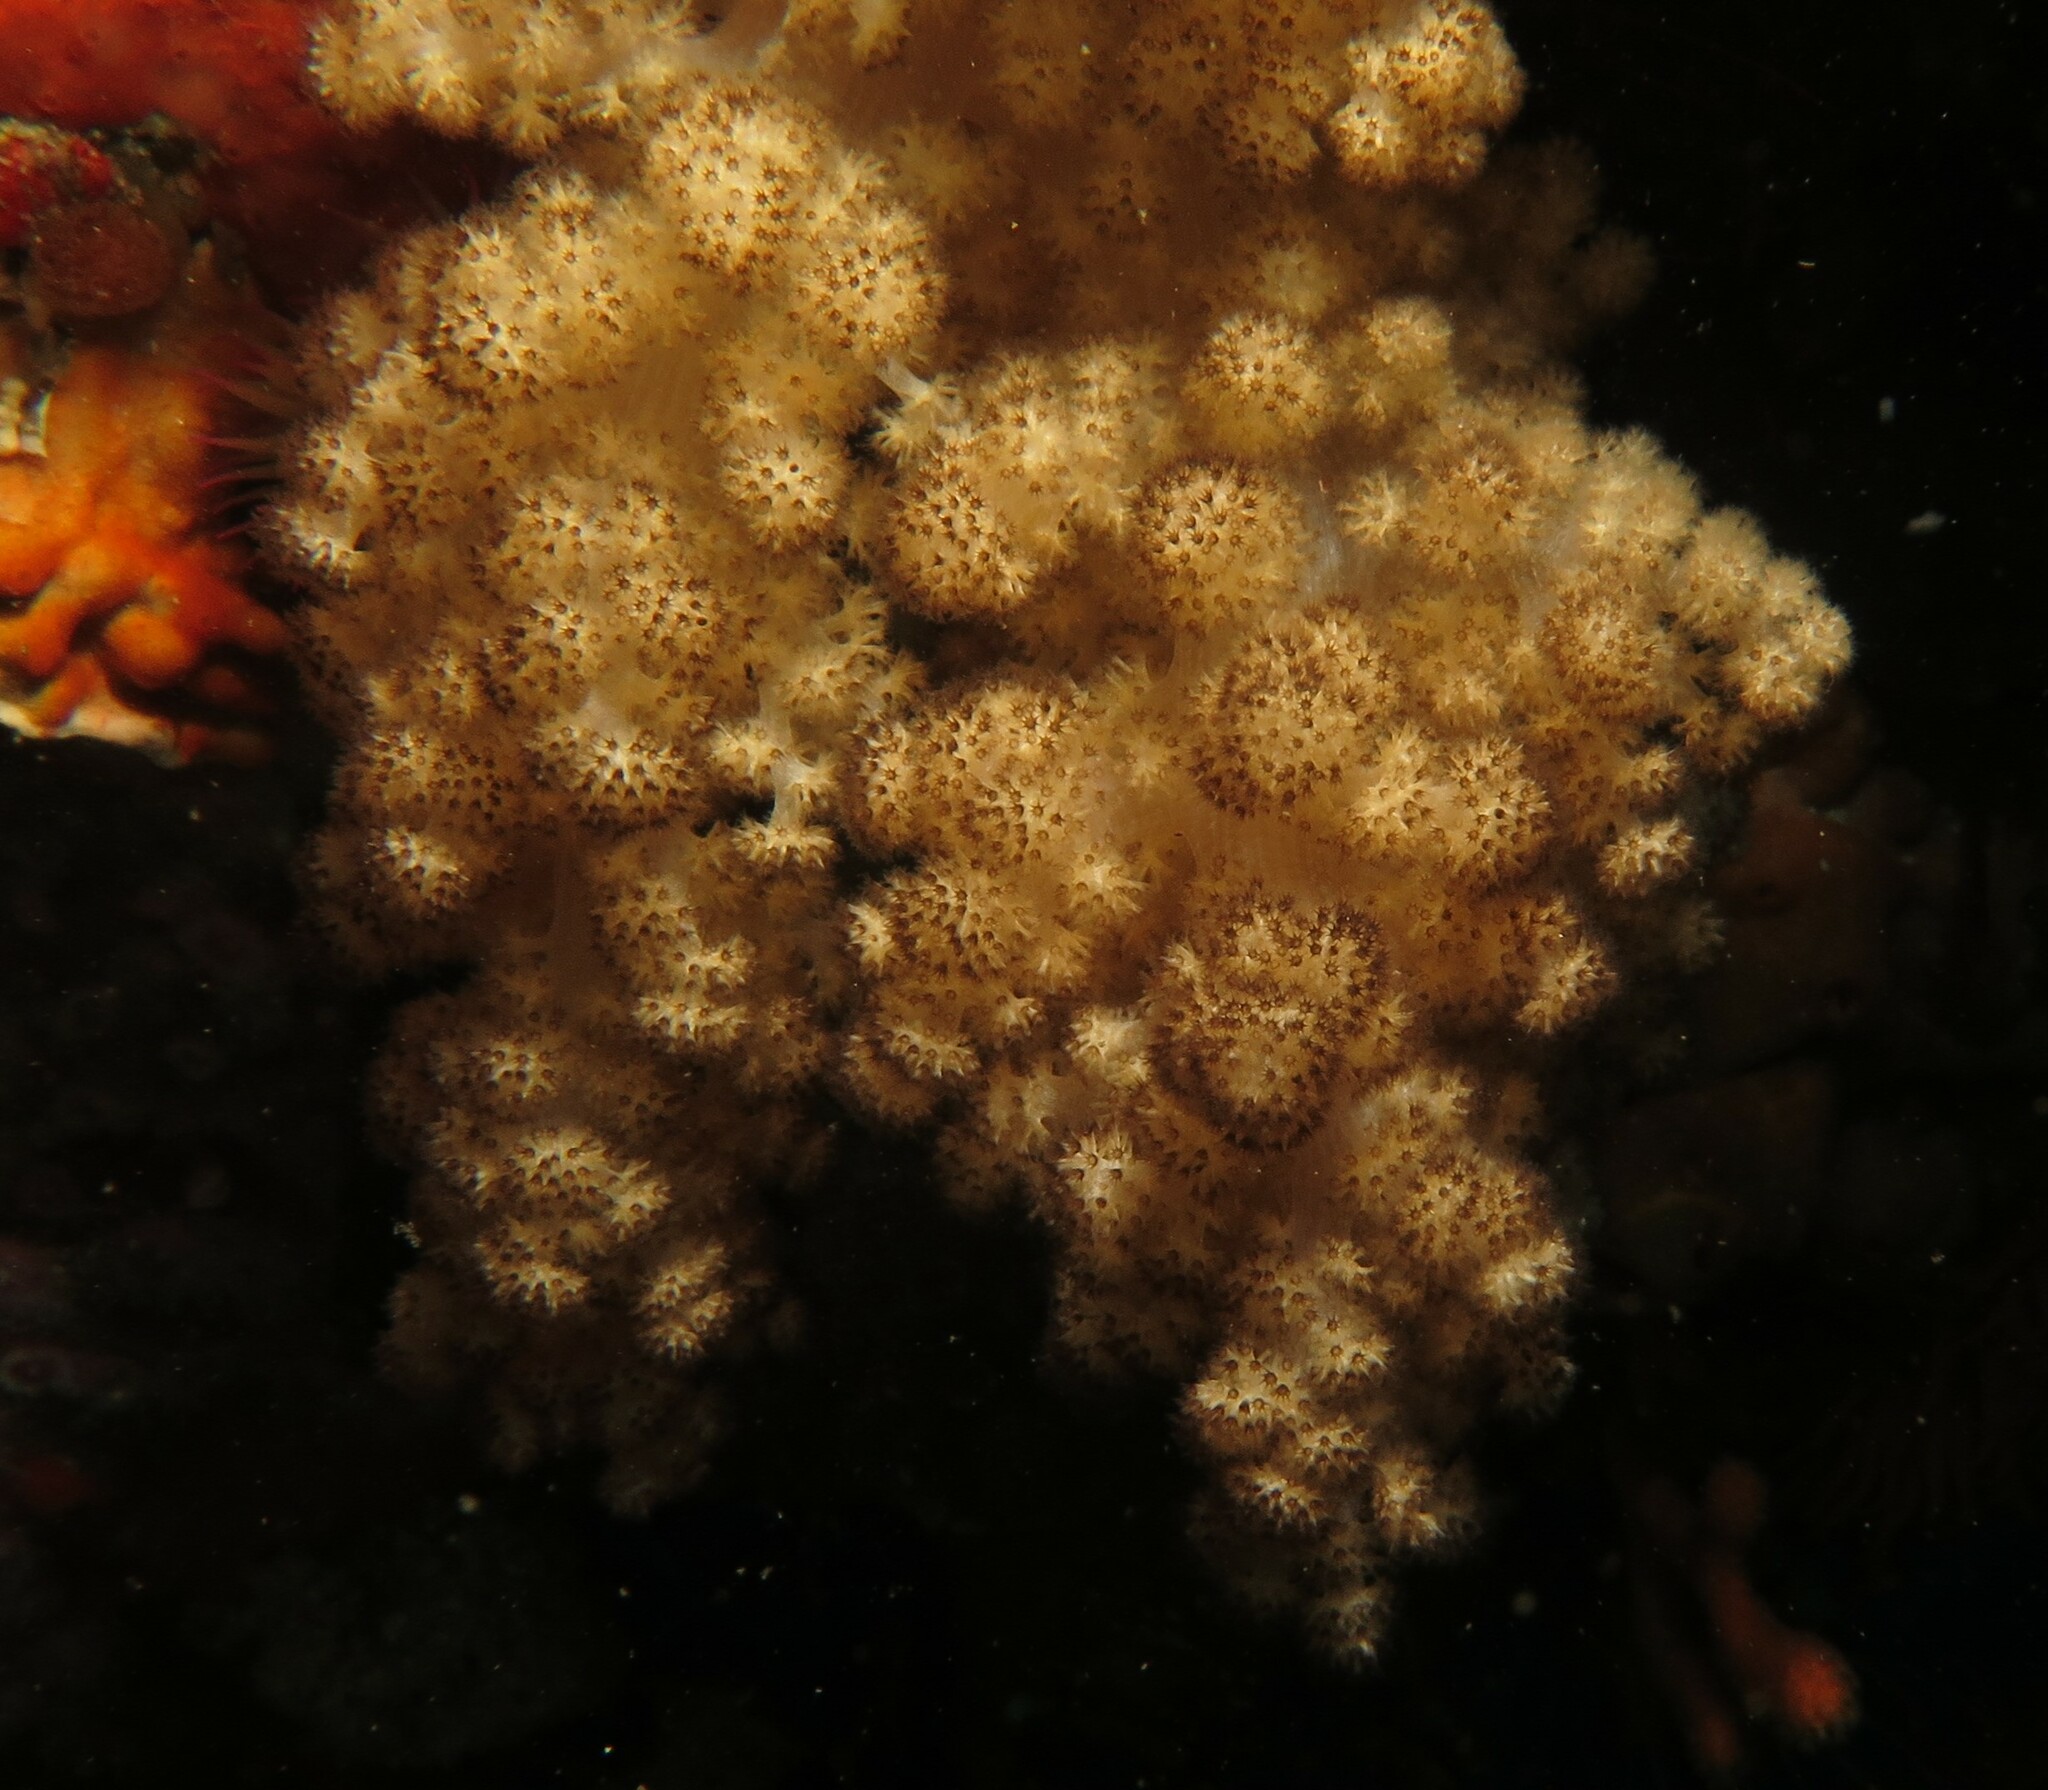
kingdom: Animalia
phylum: Cnidaria
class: Anthozoa
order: Malacalcyonacea
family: Capnellidae
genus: Eunephthya
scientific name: Eunephthya thyrsoidea
